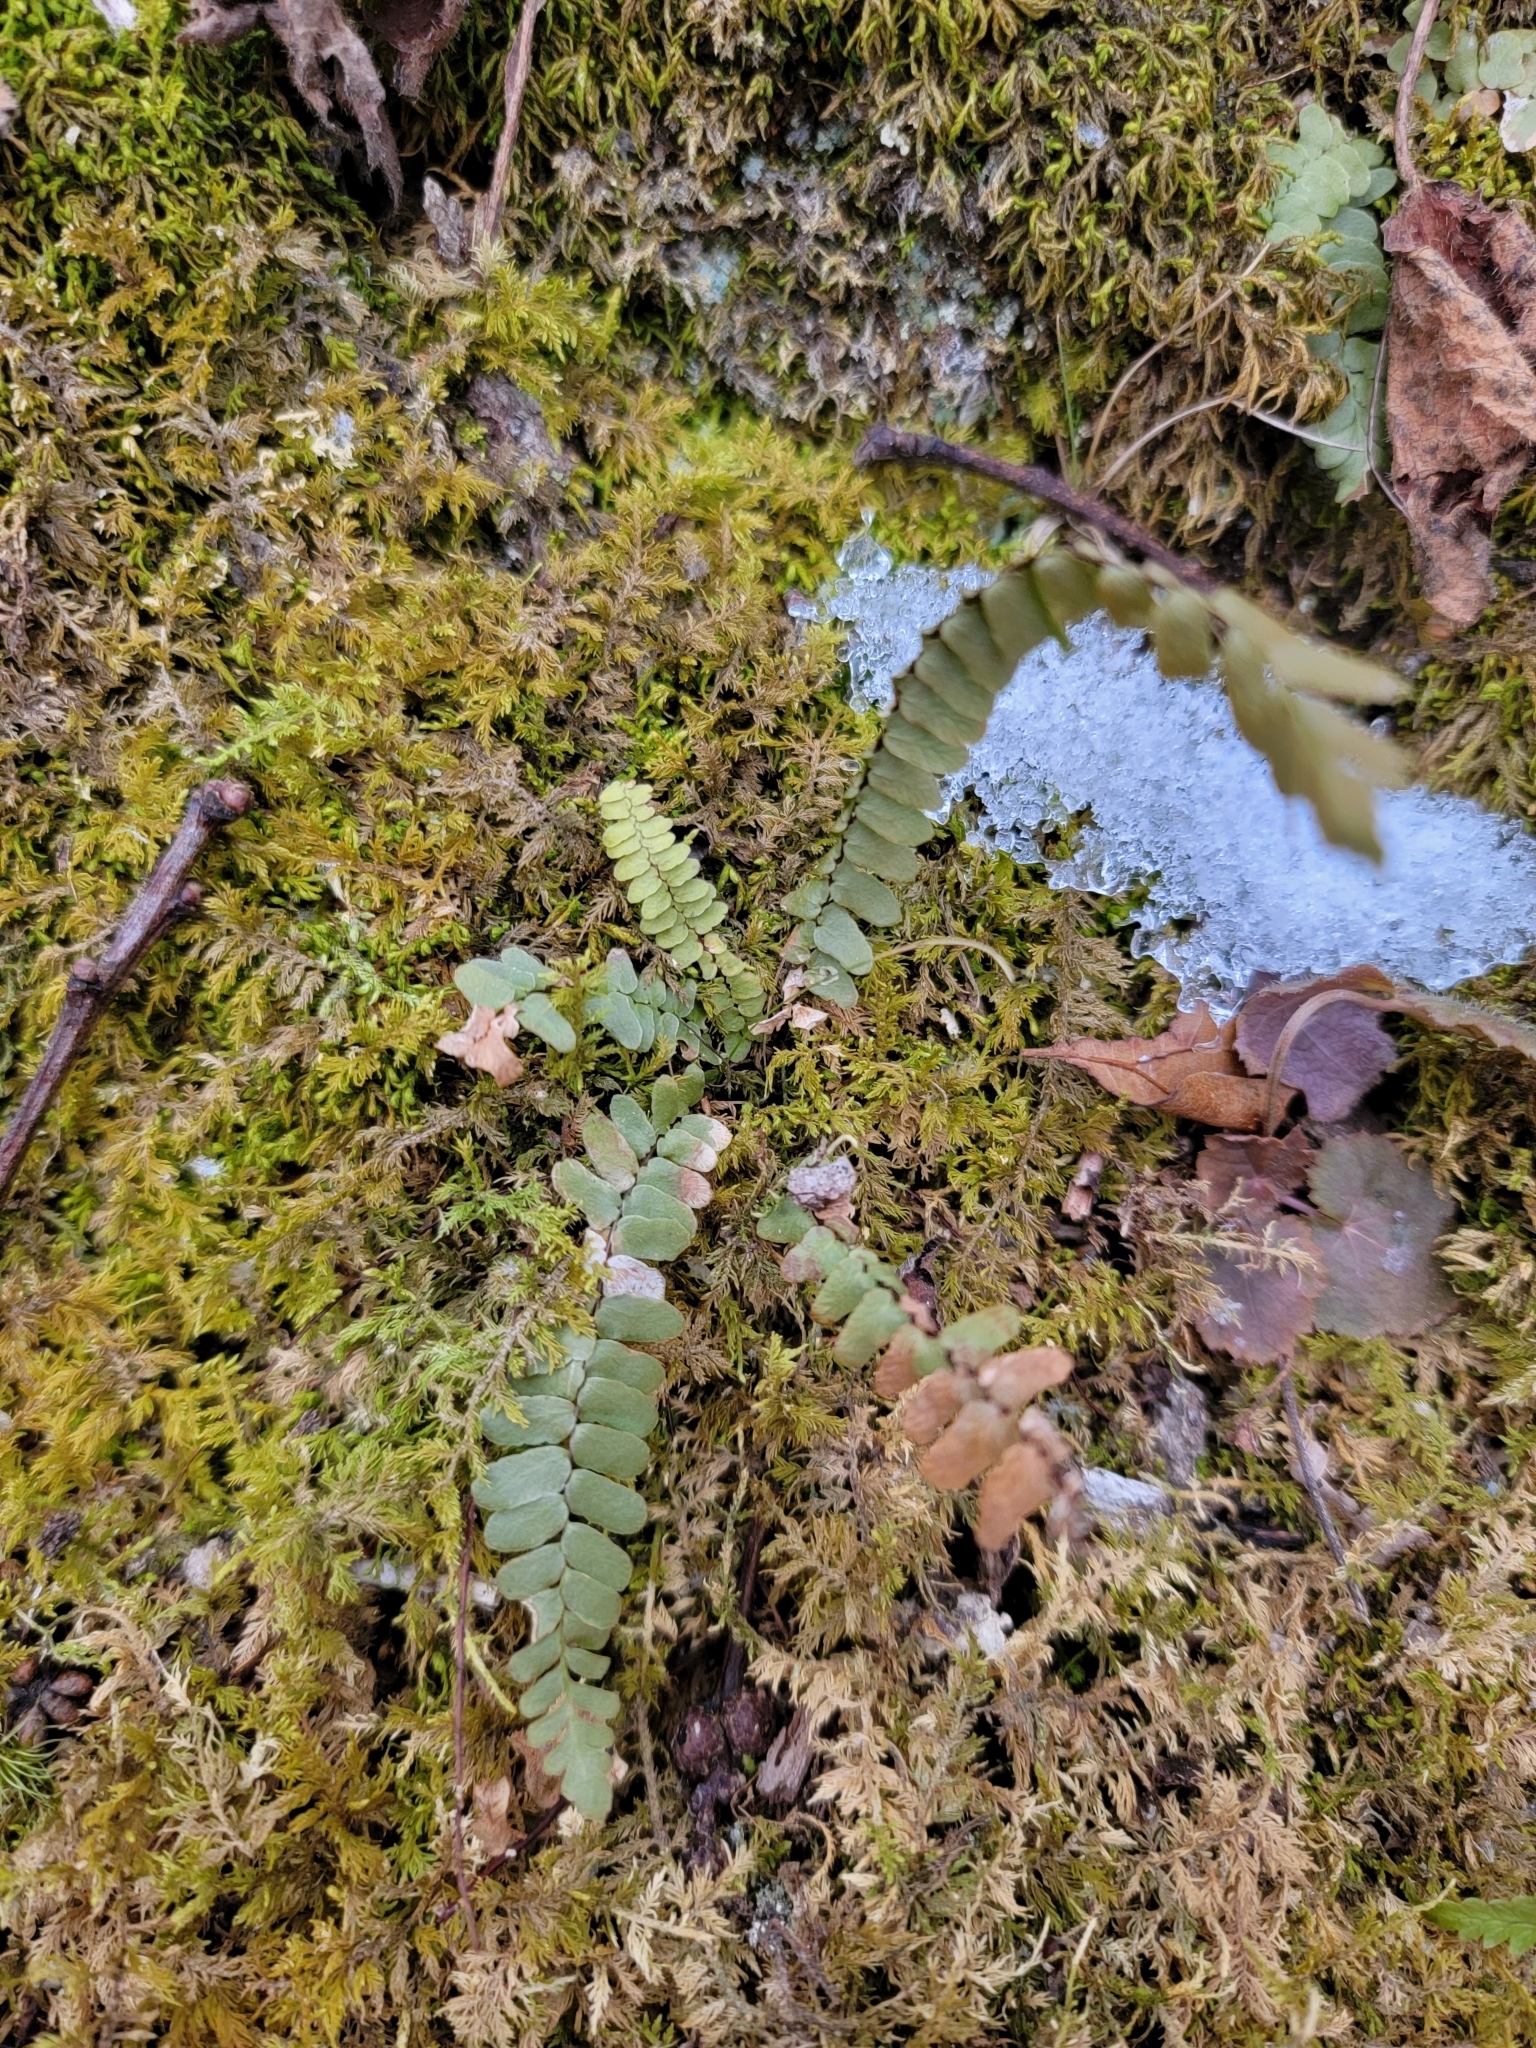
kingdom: Plantae
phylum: Tracheophyta
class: Polypodiopsida
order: Polypodiales
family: Aspleniaceae
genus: Asplenium
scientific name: Asplenium platyneuron
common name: Ebony spleenwort
